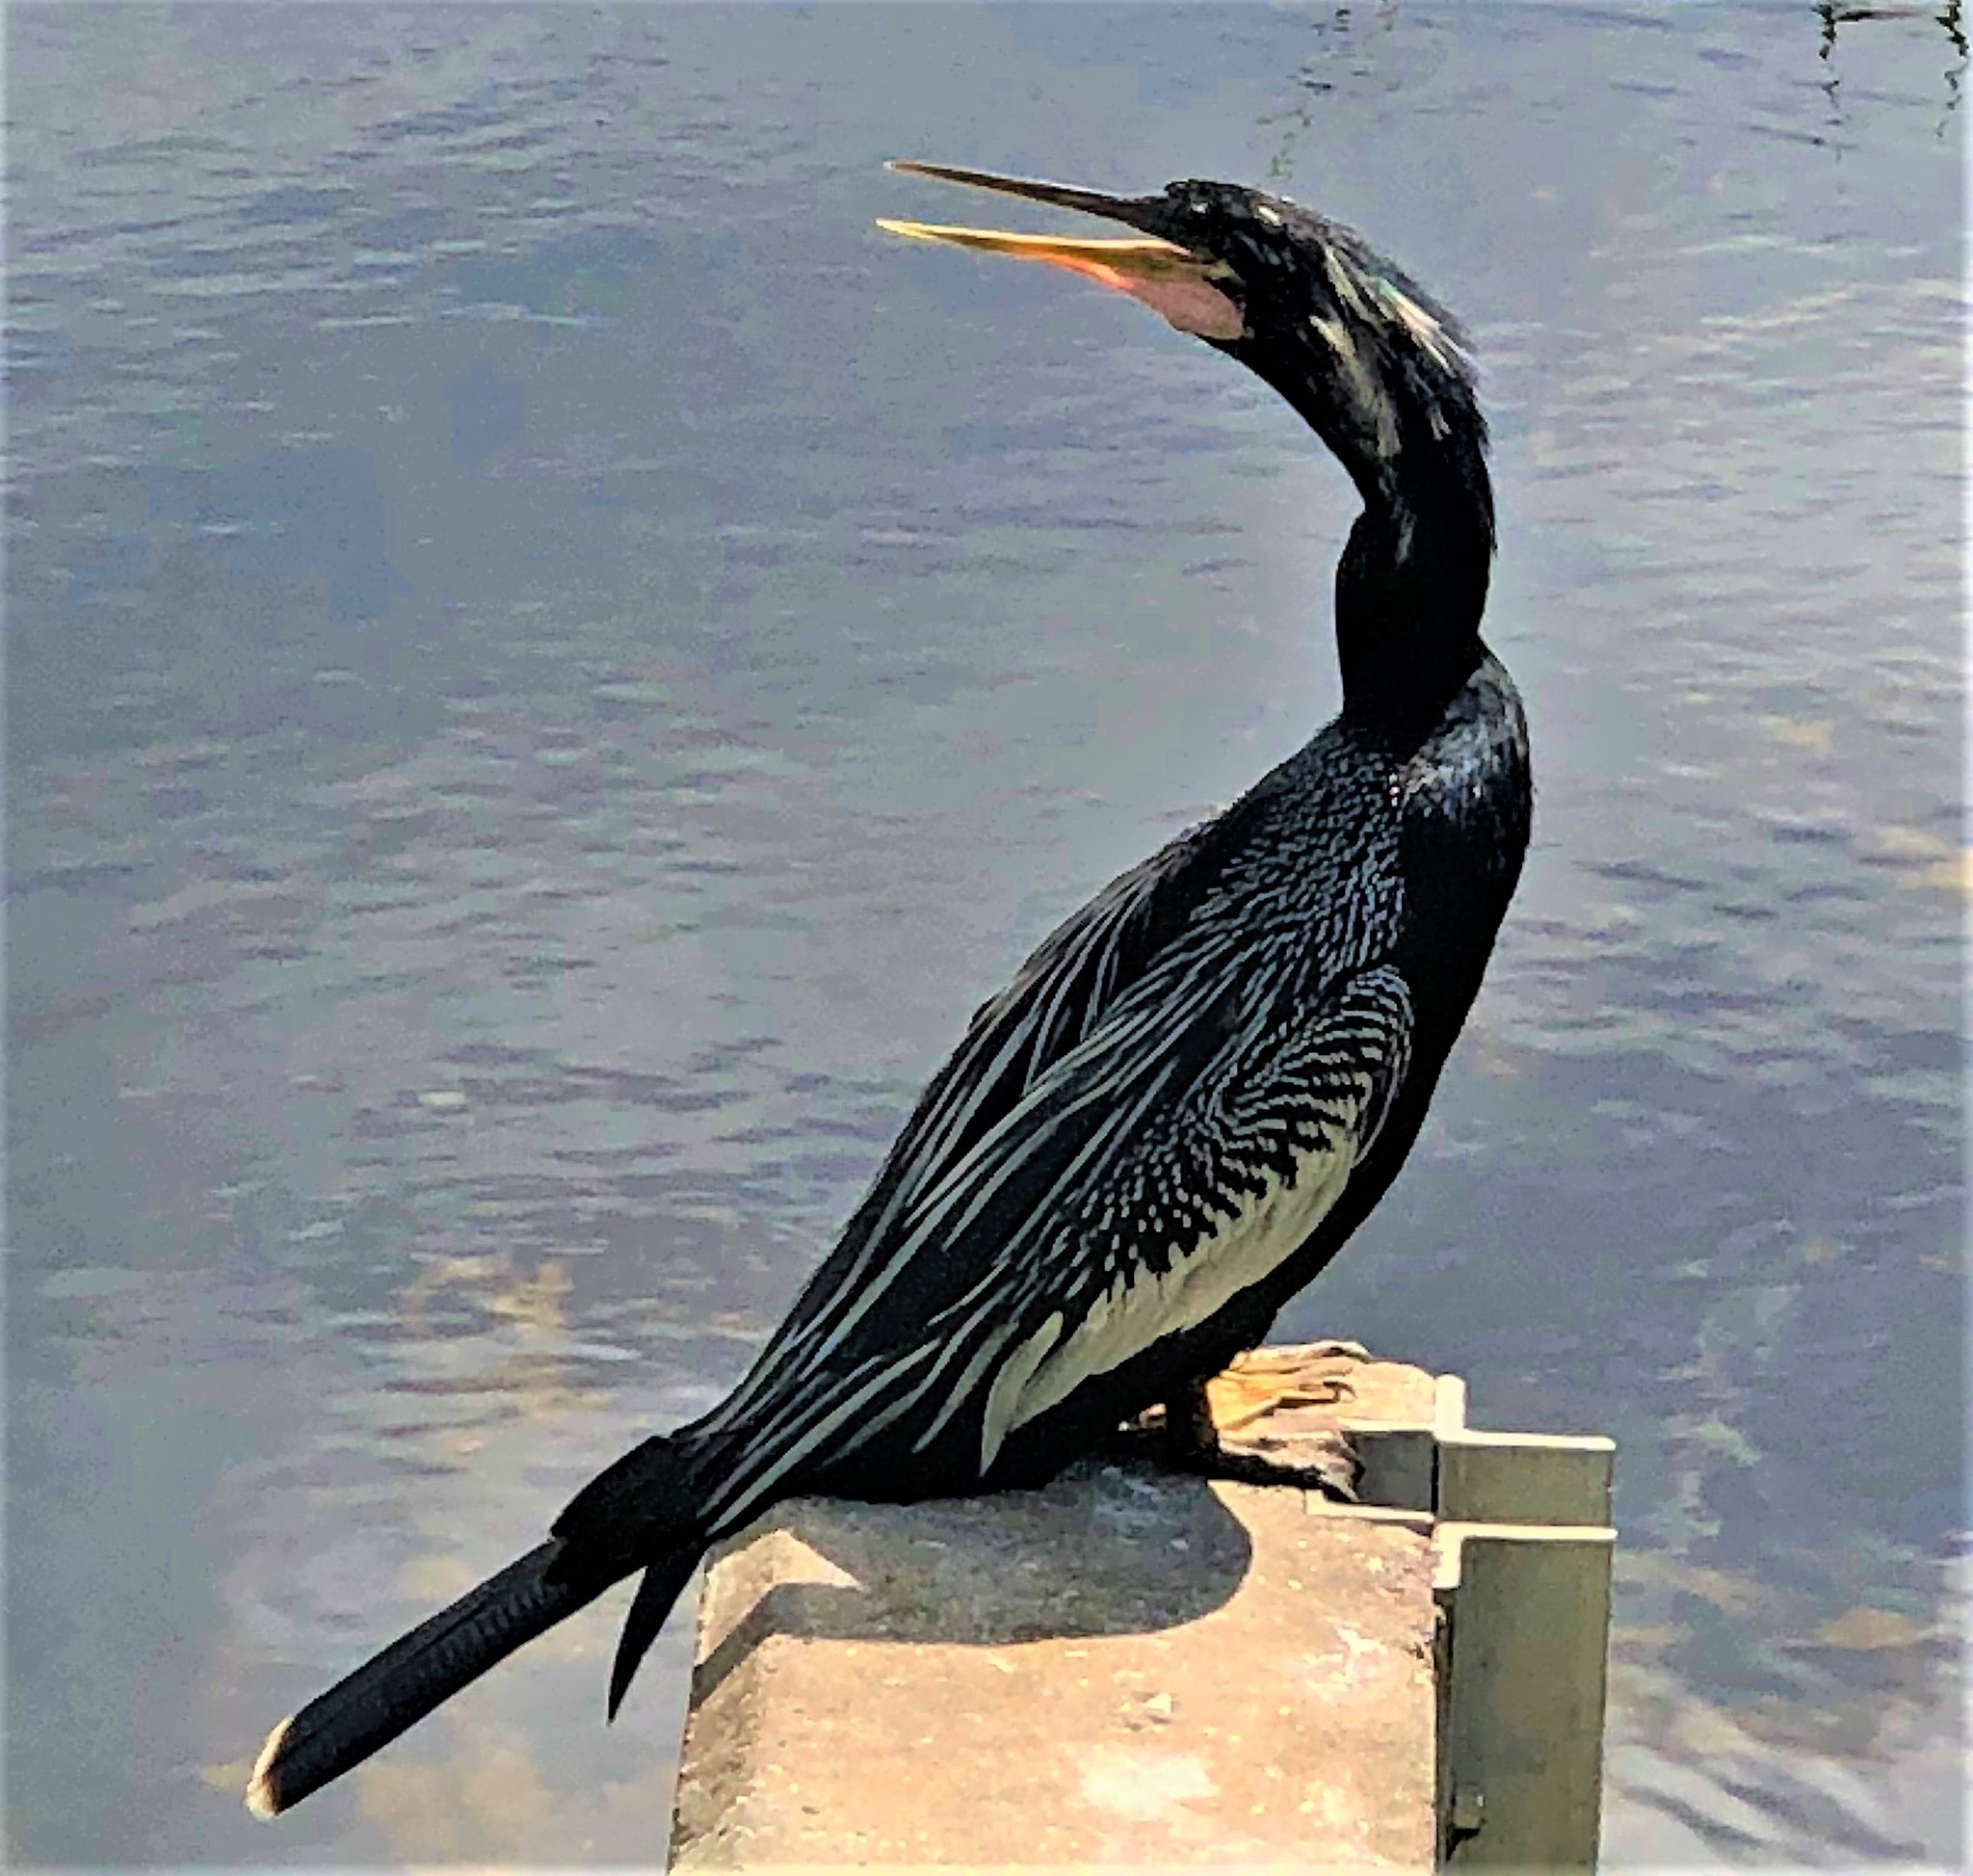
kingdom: Animalia
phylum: Chordata
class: Aves
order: Suliformes
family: Anhingidae
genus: Anhinga
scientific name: Anhinga anhinga
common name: Anhinga
